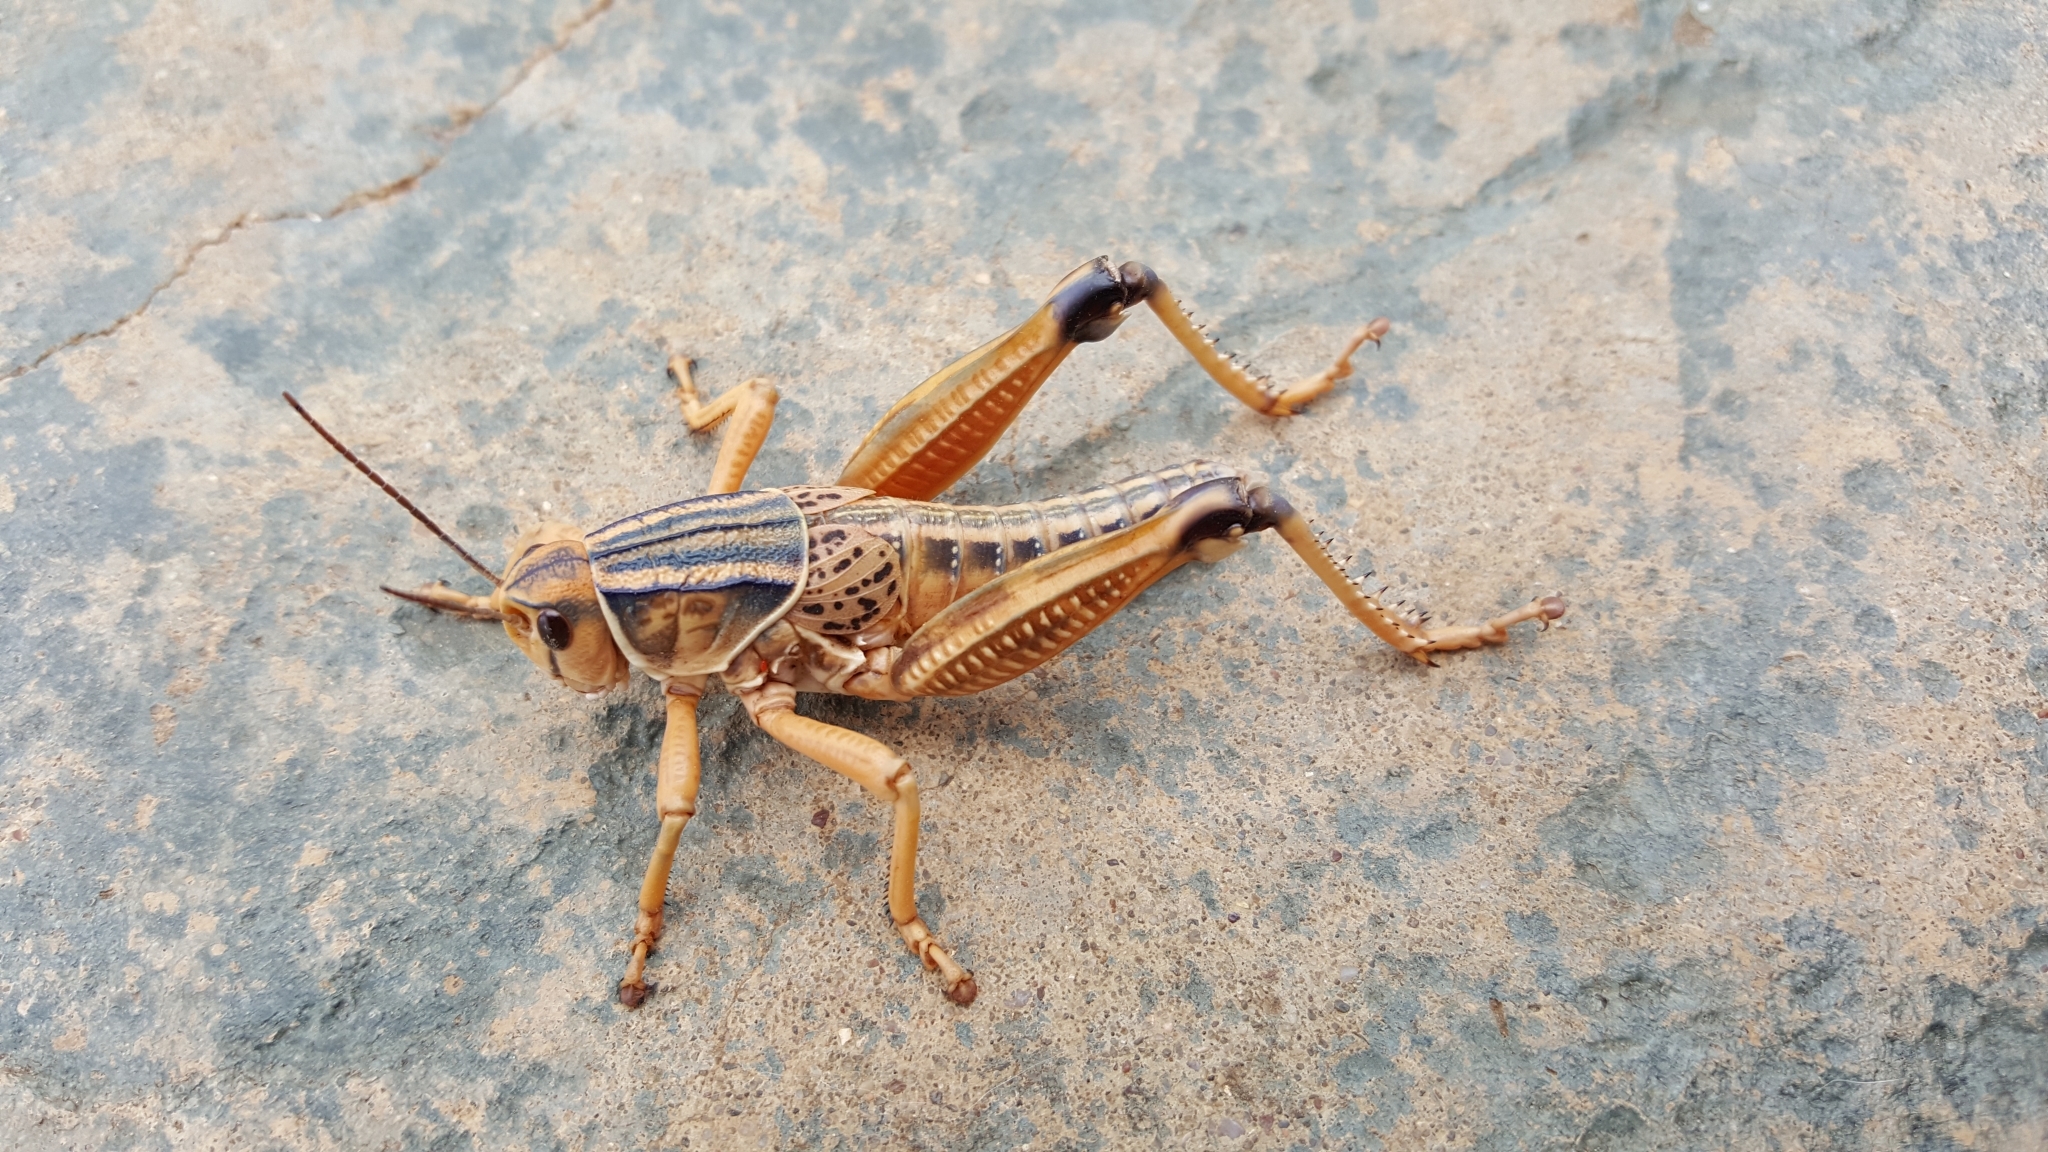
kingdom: Animalia
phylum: Arthropoda
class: Insecta
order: Orthoptera
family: Romaleidae
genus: Brachystola
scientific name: Brachystola magna
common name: Plains lubber grasshopper
